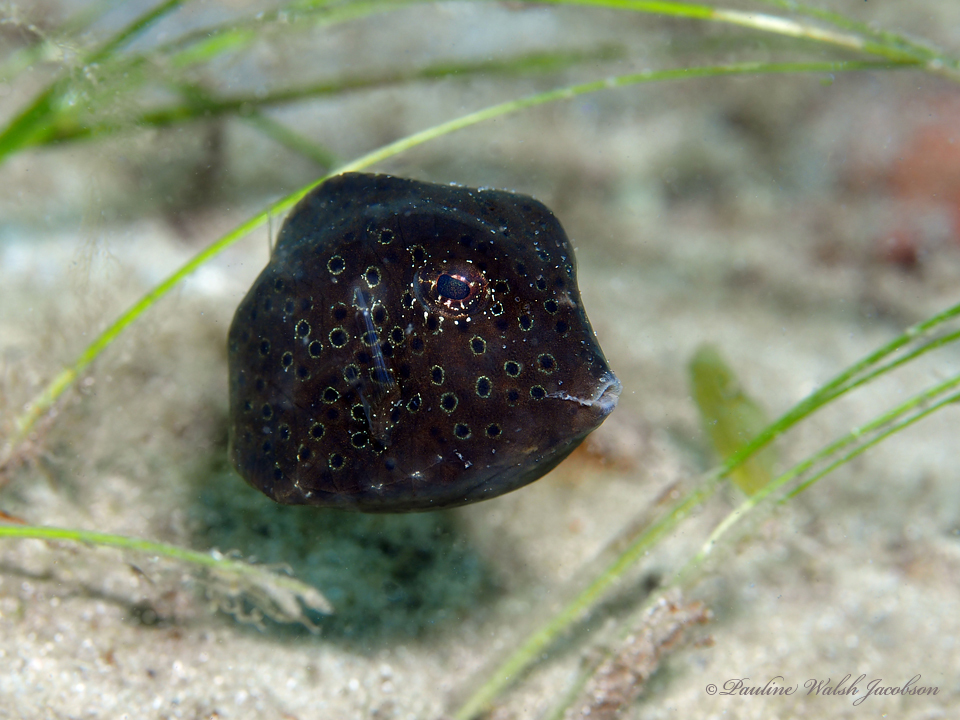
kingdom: Animalia
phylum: Chordata
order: Tetraodontiformes
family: Ostraciidae
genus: Lactophrys
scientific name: Lactophrys trigonus
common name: Buffalo trunkfish
